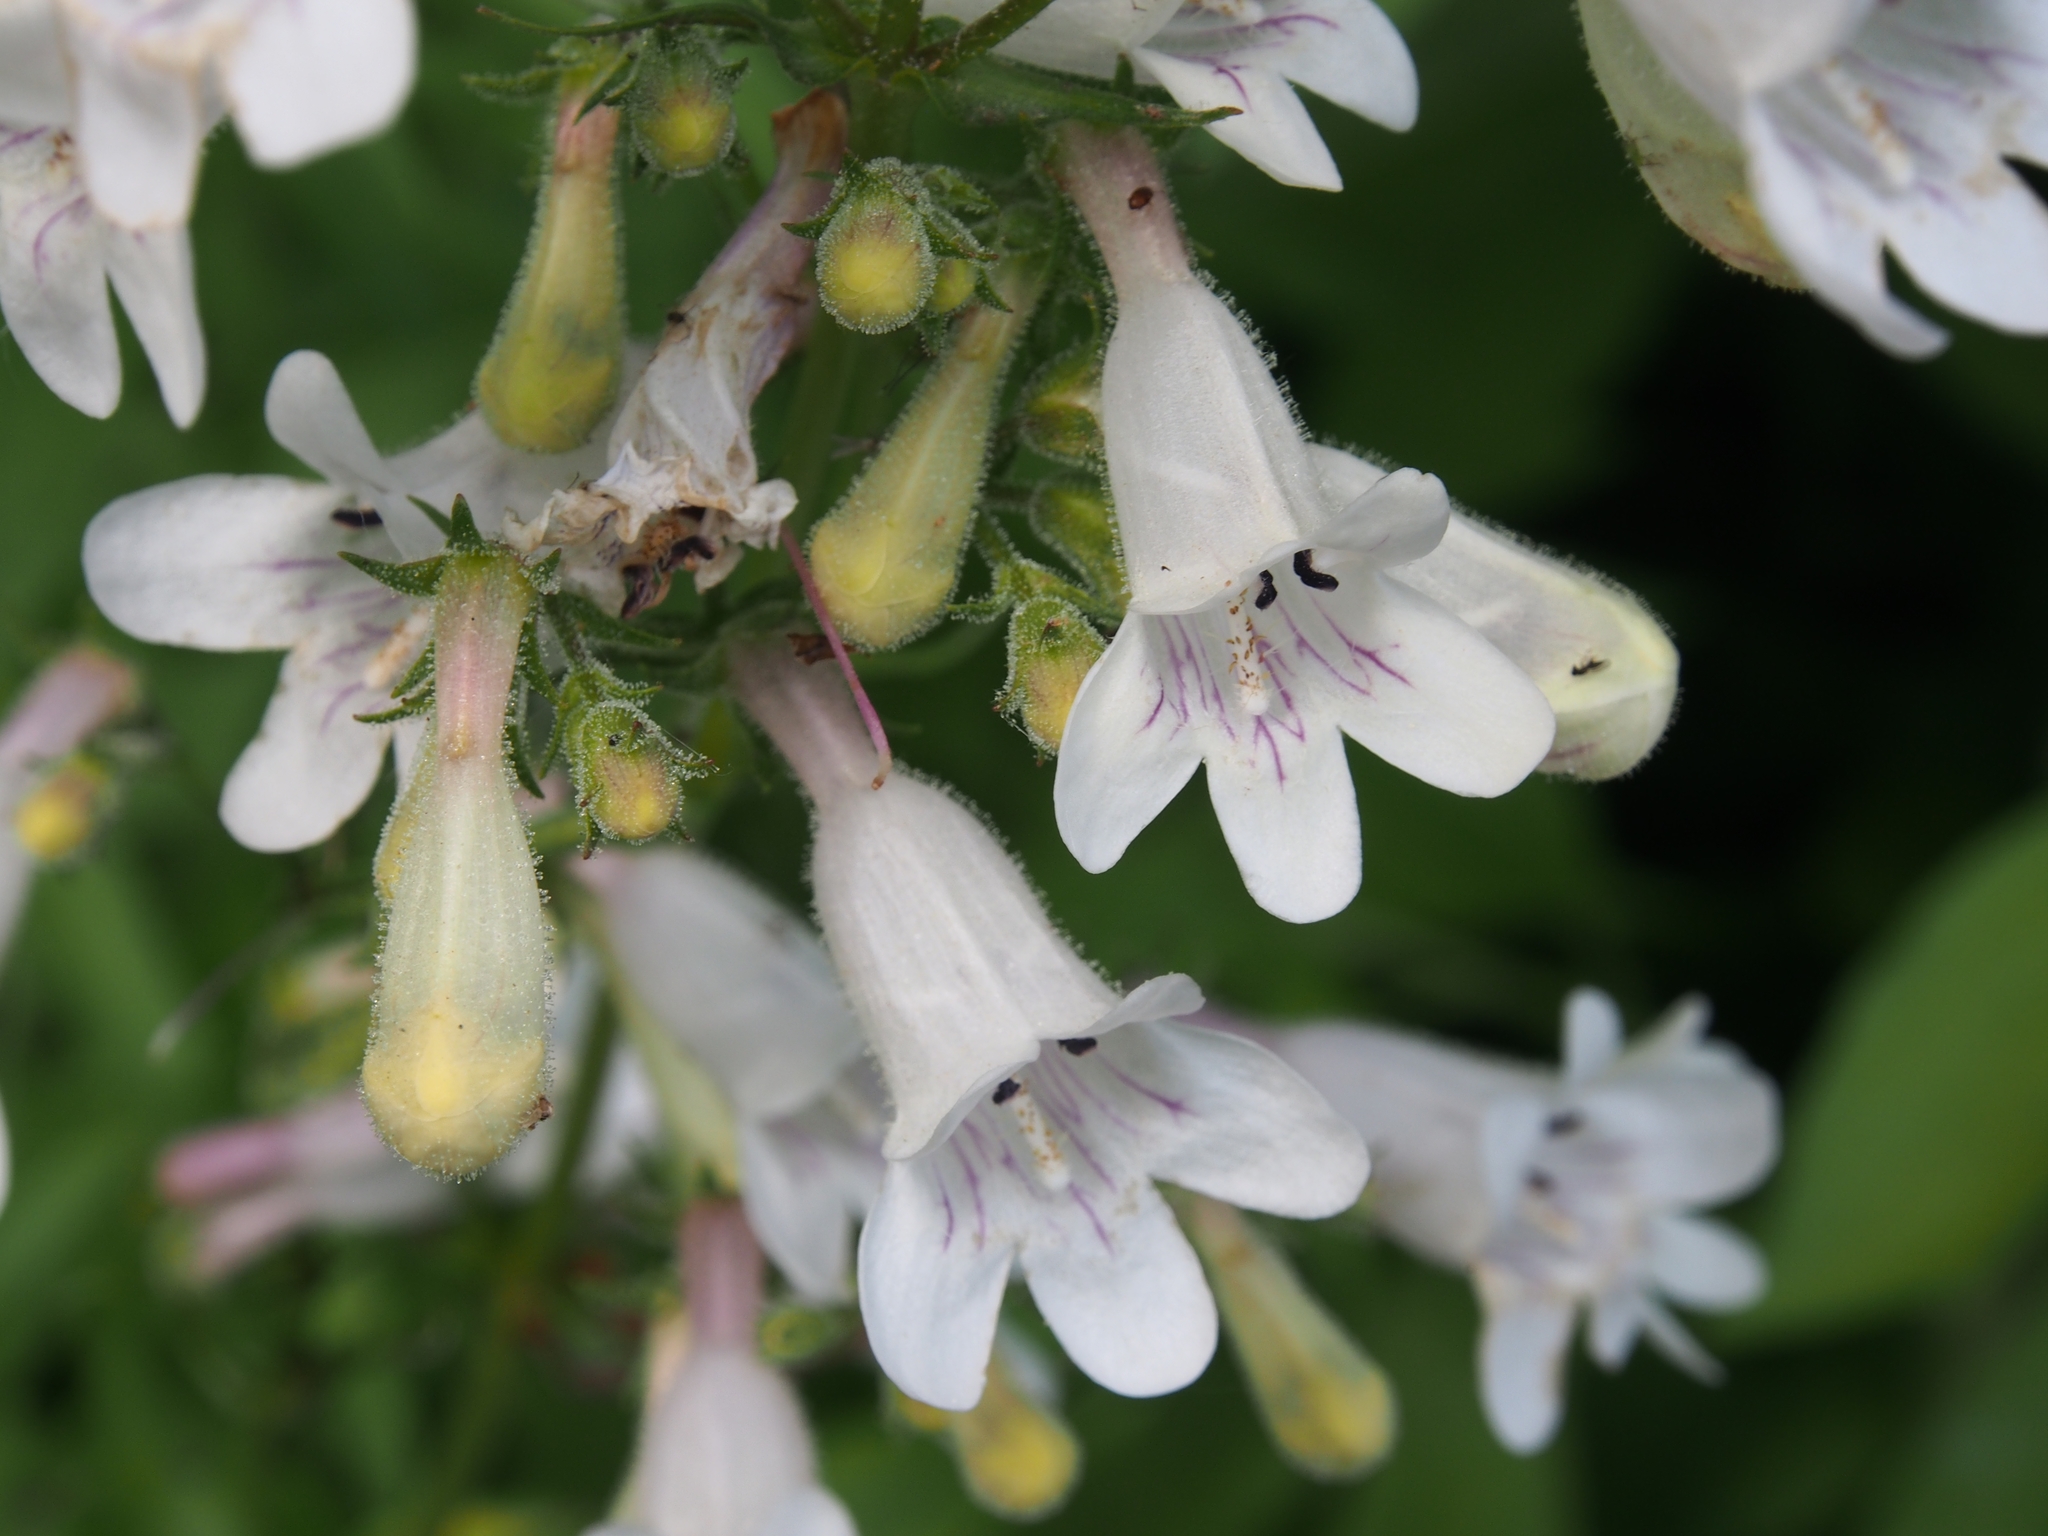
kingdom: Plantae
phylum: Tracheophyta
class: Magnoliopsida
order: Lamiales
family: Plantaginaceae
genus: Penstemon
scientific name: Penstemon digitalis
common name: Foxglove beardtongue
